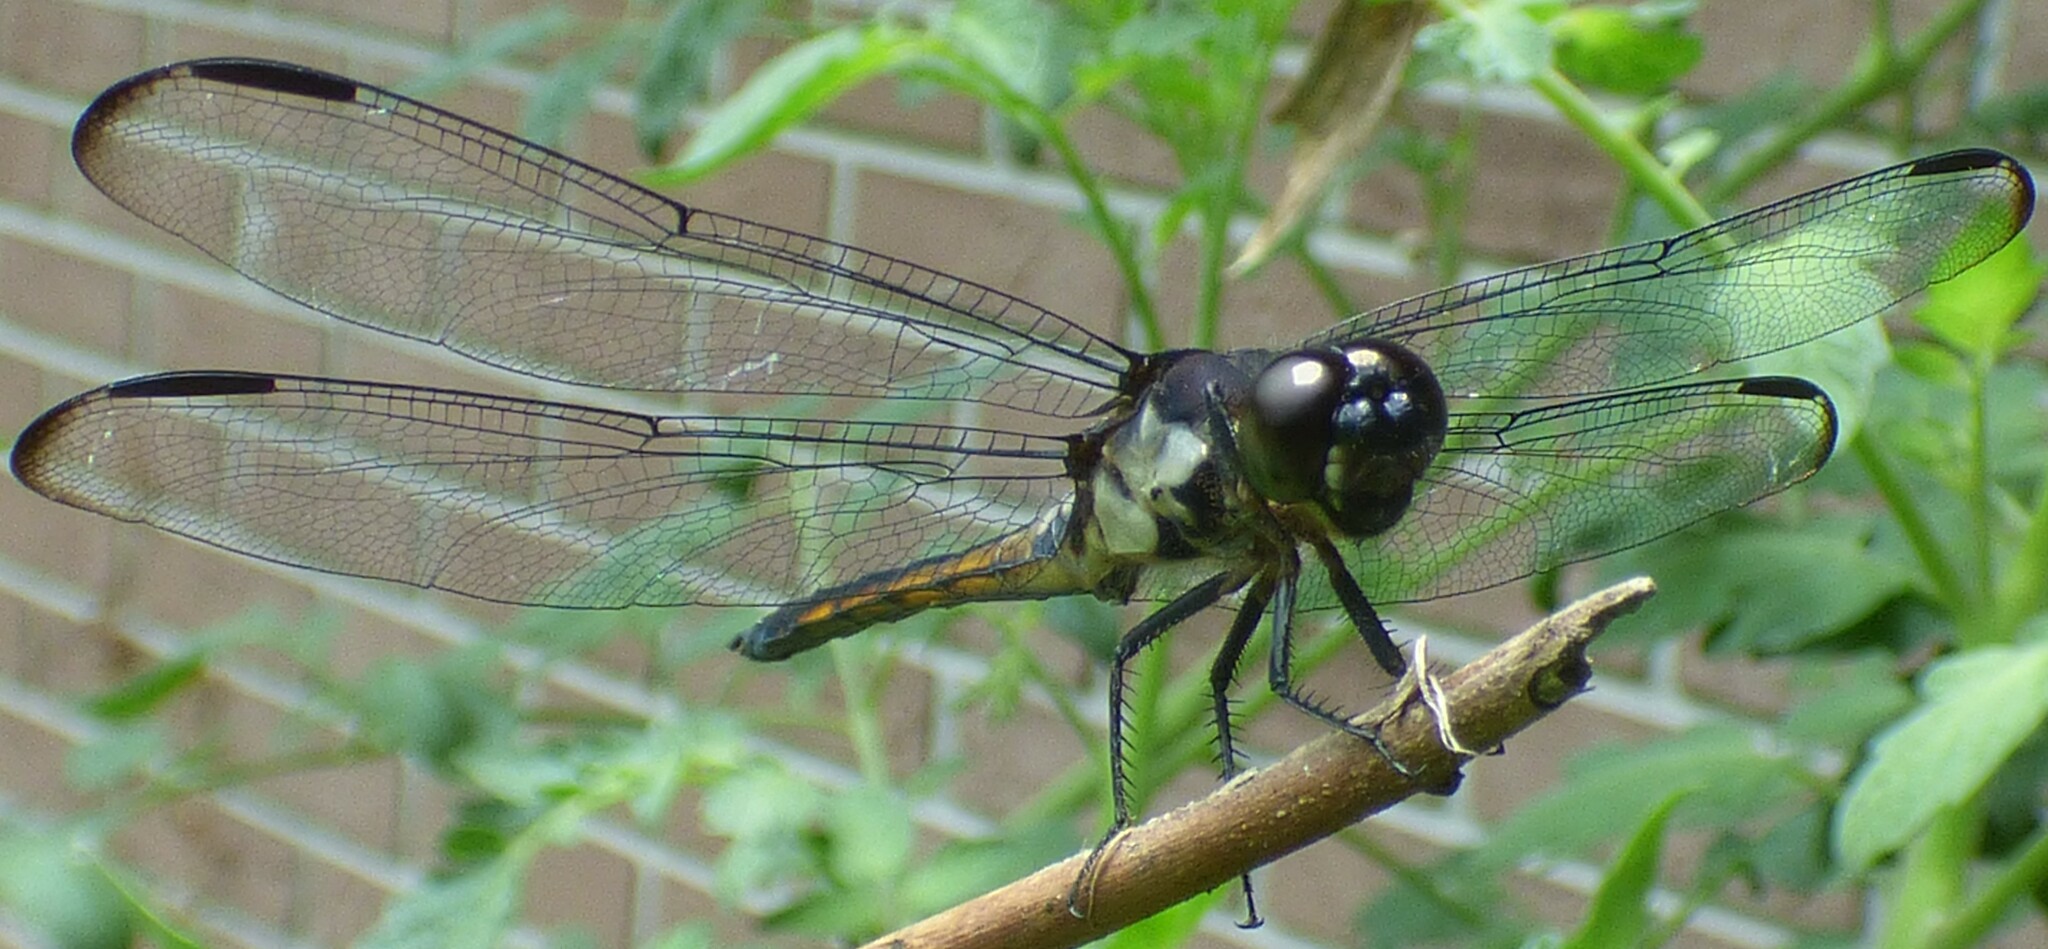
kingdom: Animalia
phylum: Arthropoda
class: Insecta
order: Odonata
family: Libellulidae
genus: Libellula
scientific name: Libellula incesta
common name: Slaty skimmer
